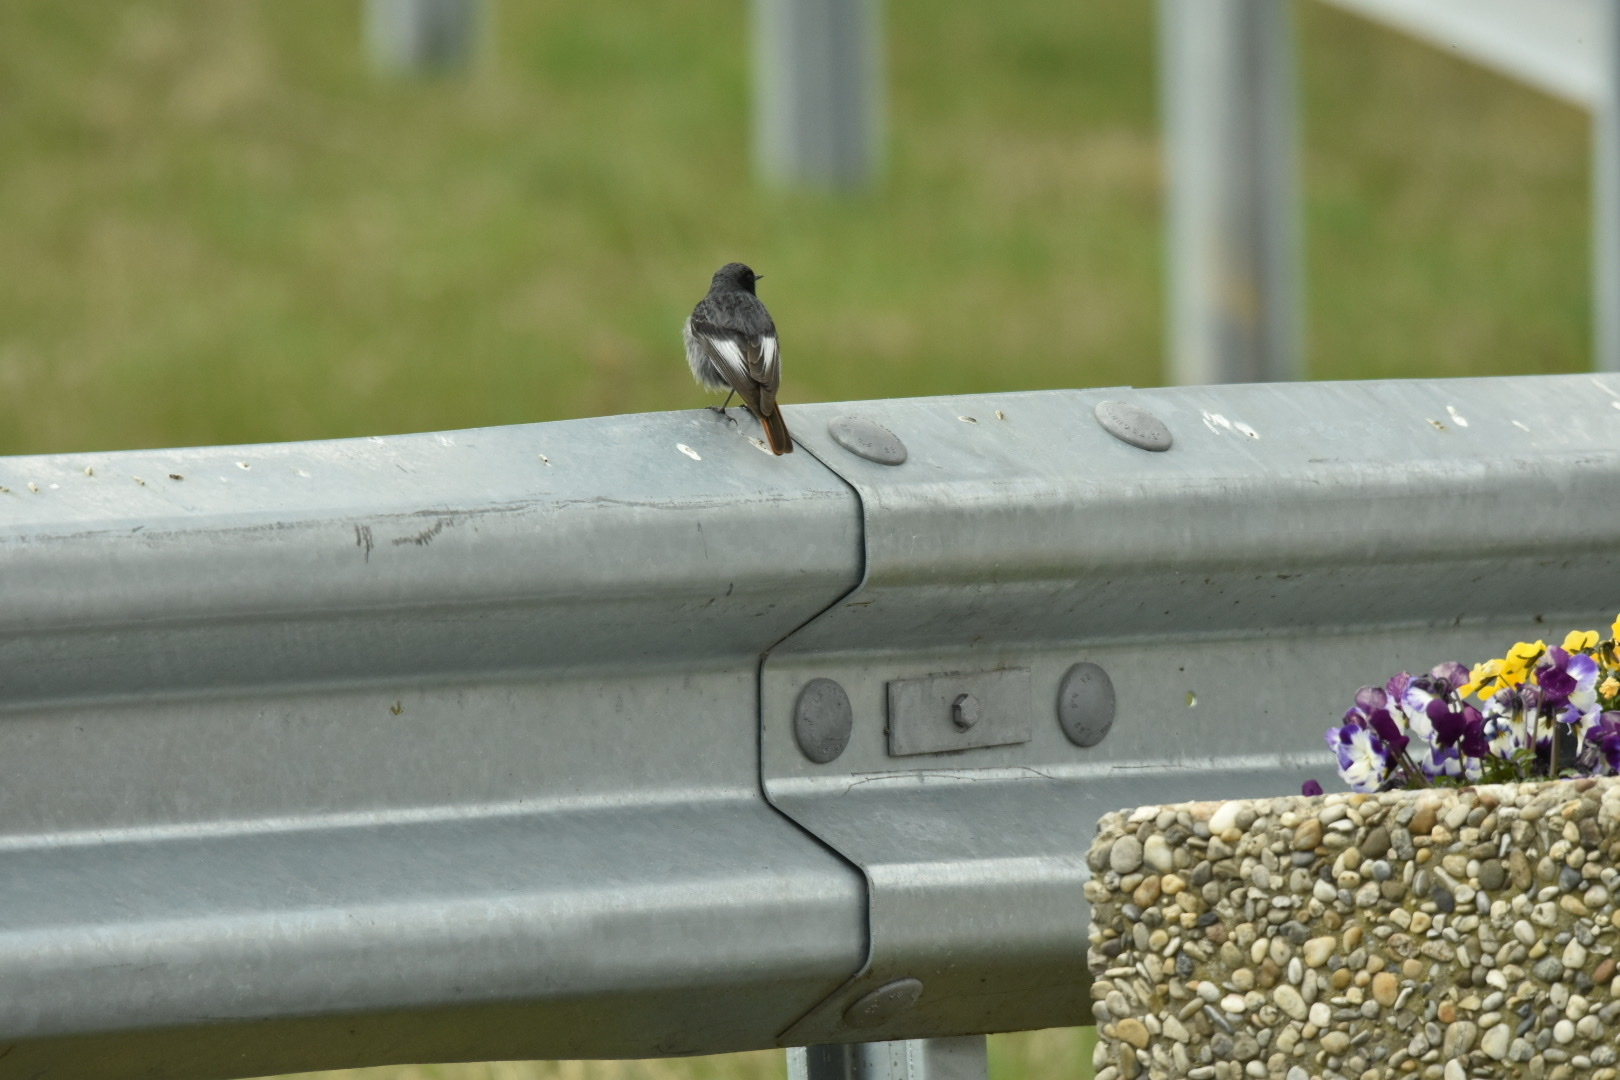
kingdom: Animalia
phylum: Chordata
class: Aves
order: Passeriformes
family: Muscicapidae
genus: Phoenicurus
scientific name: Phoenicurus ochruros
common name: Black redstart
